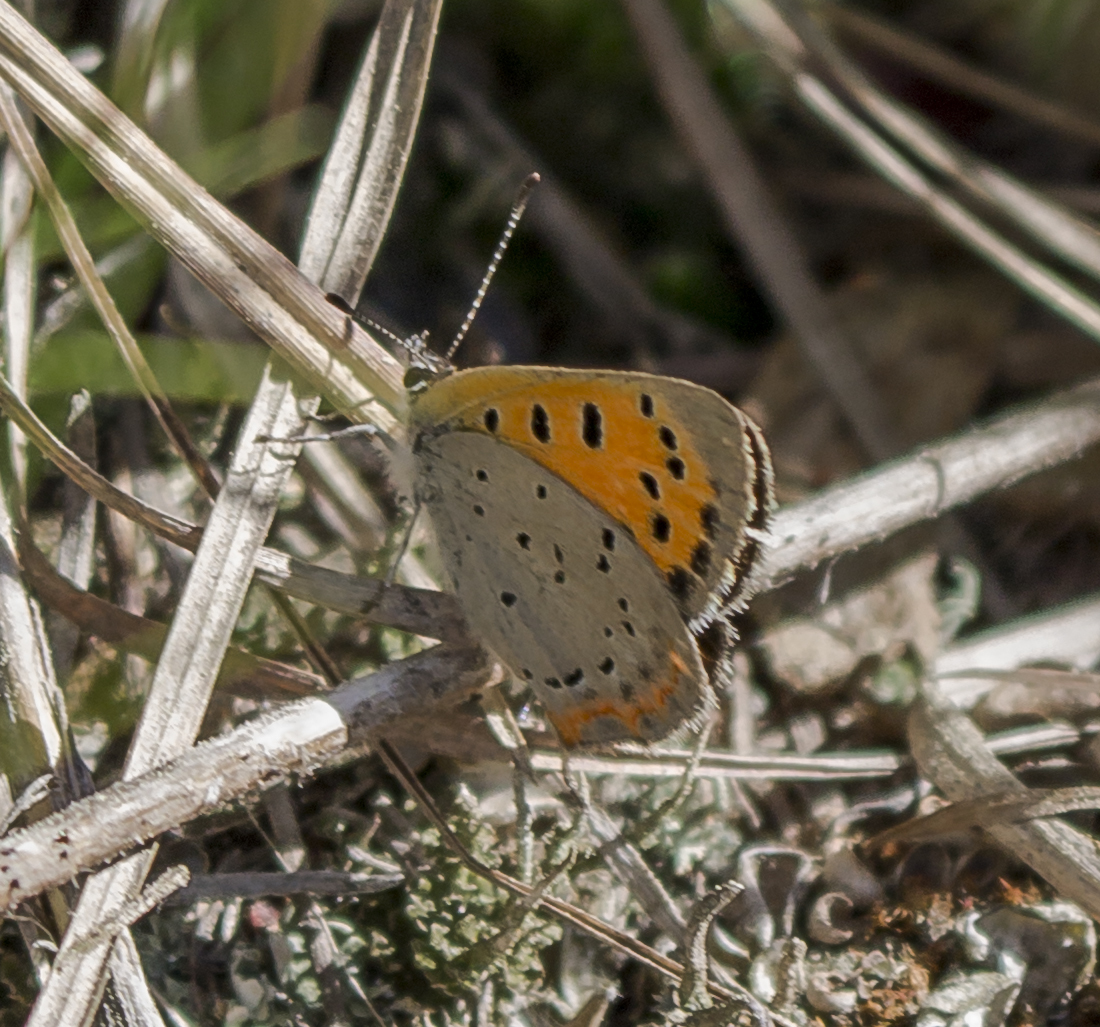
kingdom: Animalia
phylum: Arthropoda
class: Insecta
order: Lepidoptera
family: Lycaenidae
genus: Lycaena
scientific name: Lycaena hypophlaeas
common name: American copper
